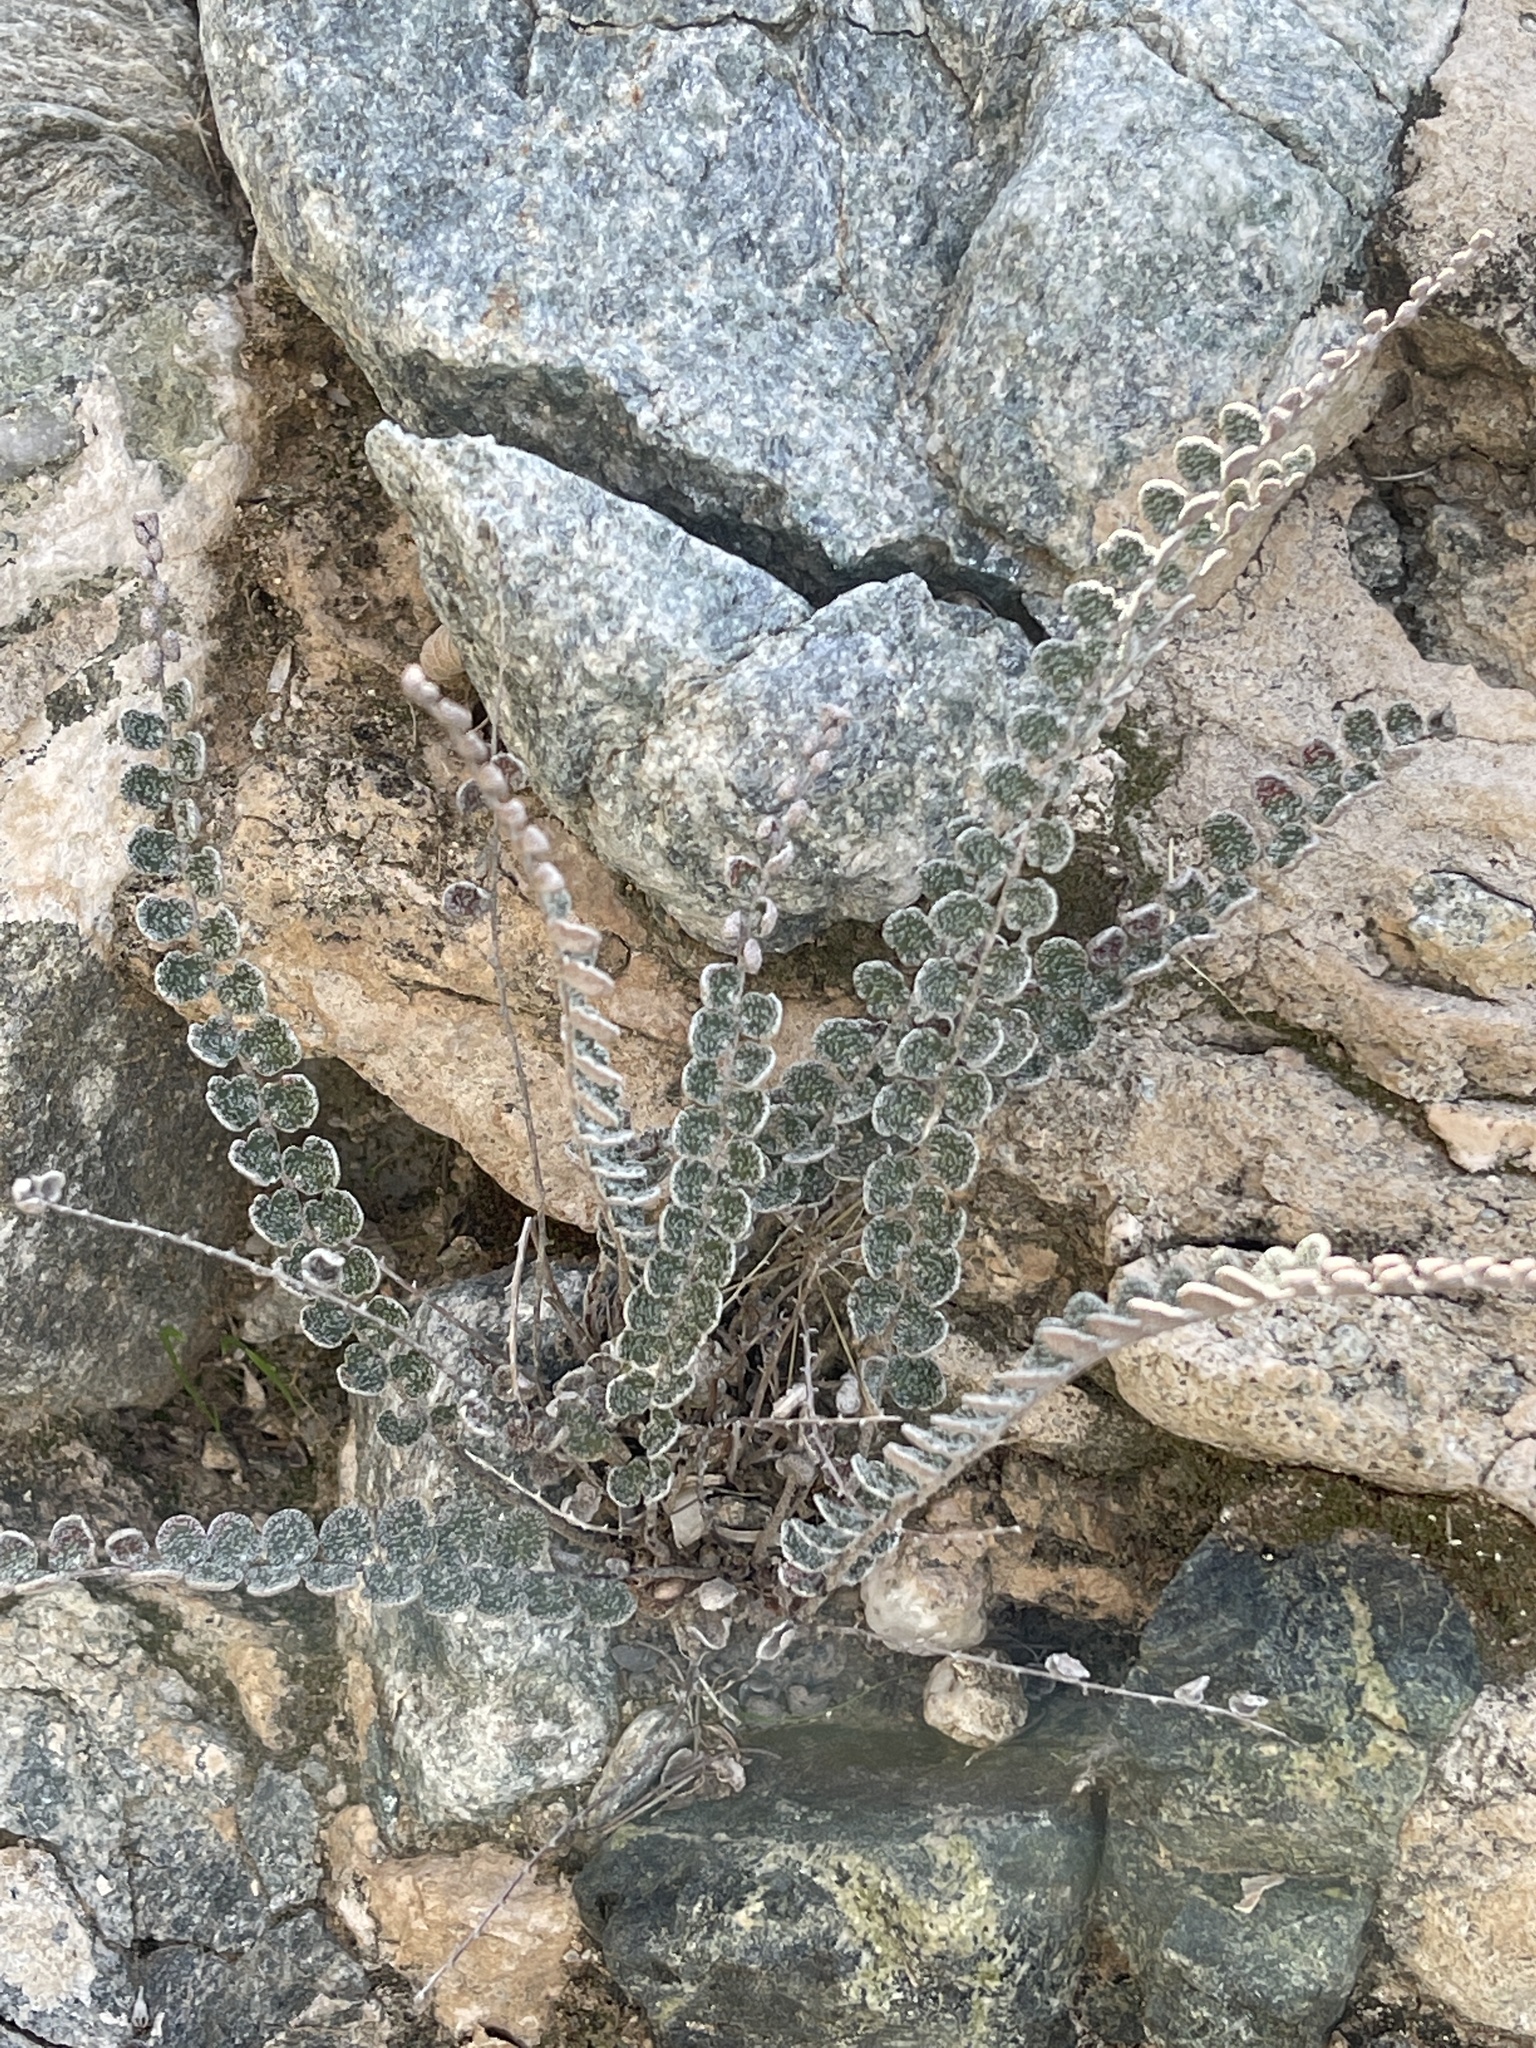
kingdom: Plantae
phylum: Tracheophyta
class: Polypodiopsida
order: Polypodiales
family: Pteridaceae
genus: Astrolepis
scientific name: Astrolepis cochisensis
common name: Scaly cloak fern
